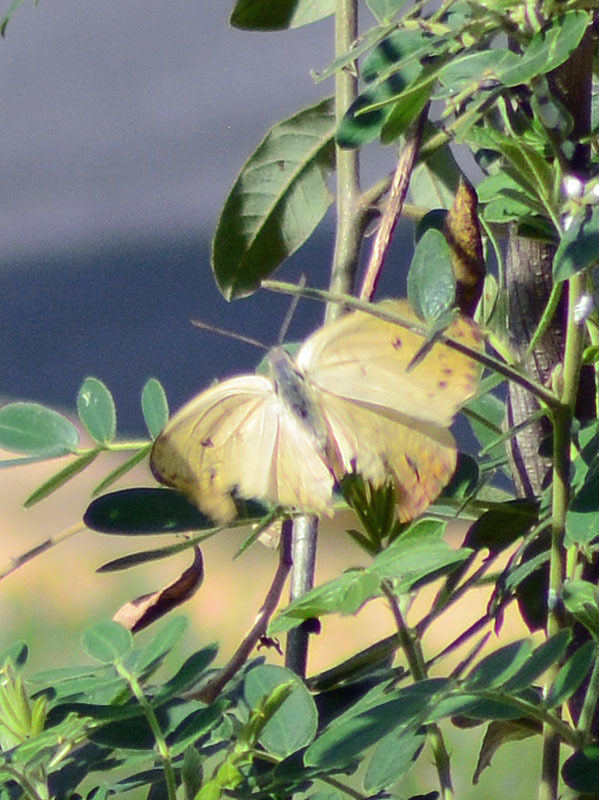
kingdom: Animalia
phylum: Arthropoda
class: Insecta
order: Lepidoptera
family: Pieridae
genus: Phoebis
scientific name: Phoebis philea
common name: Orange-barred giant sulphur
